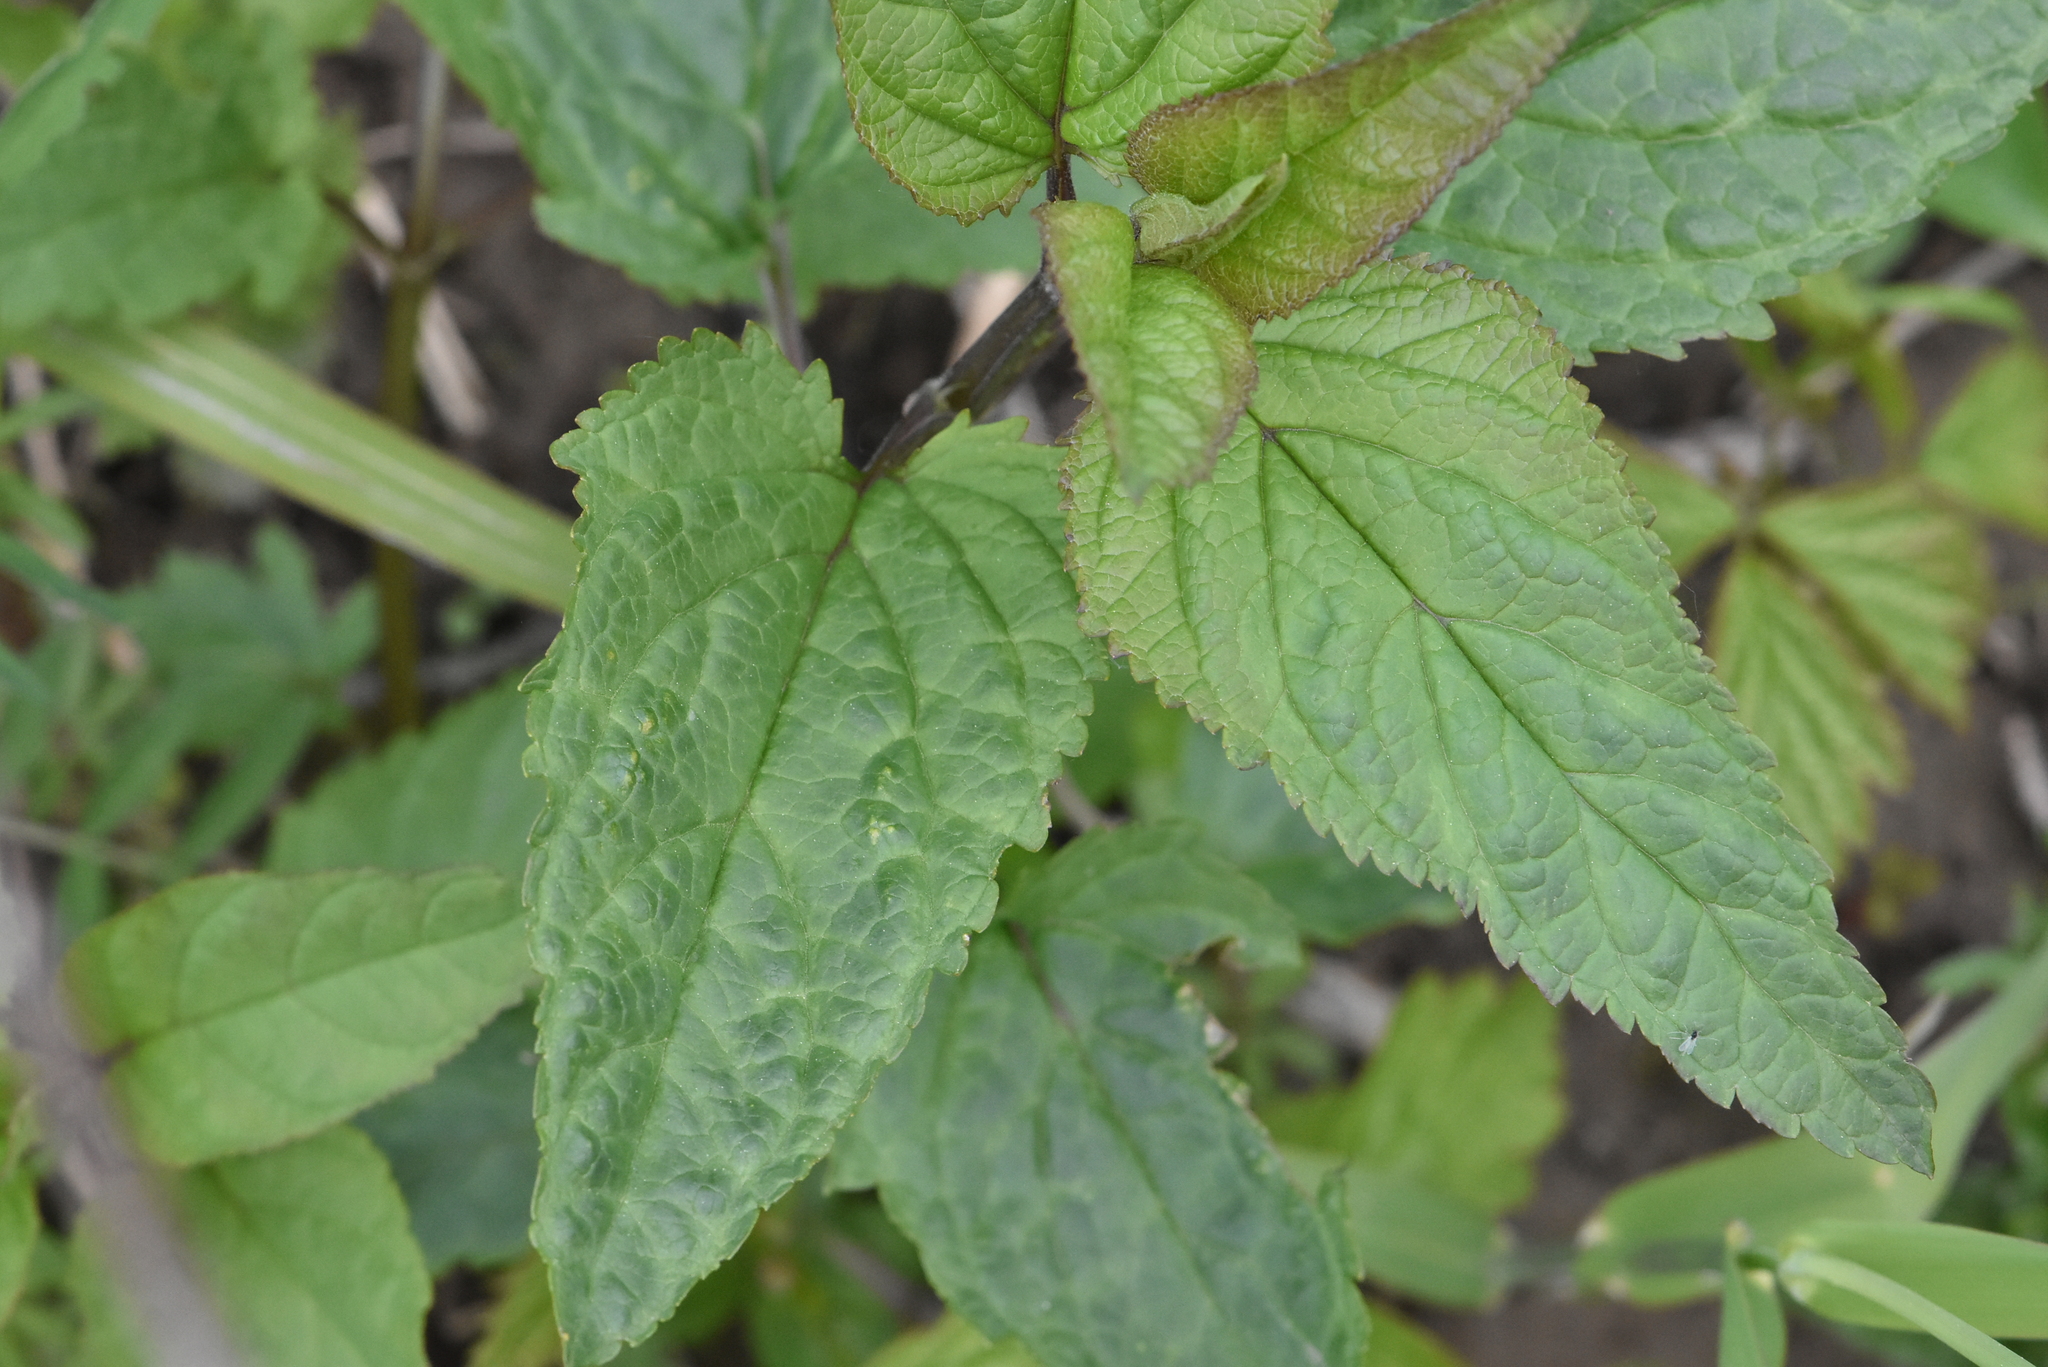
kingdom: Plantae
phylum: Tracheophyta
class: Magnoliopsida
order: Lamiales
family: Scrophulariaceae
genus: Scrophularia
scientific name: Scrophularia nodosa
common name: Common figwort
